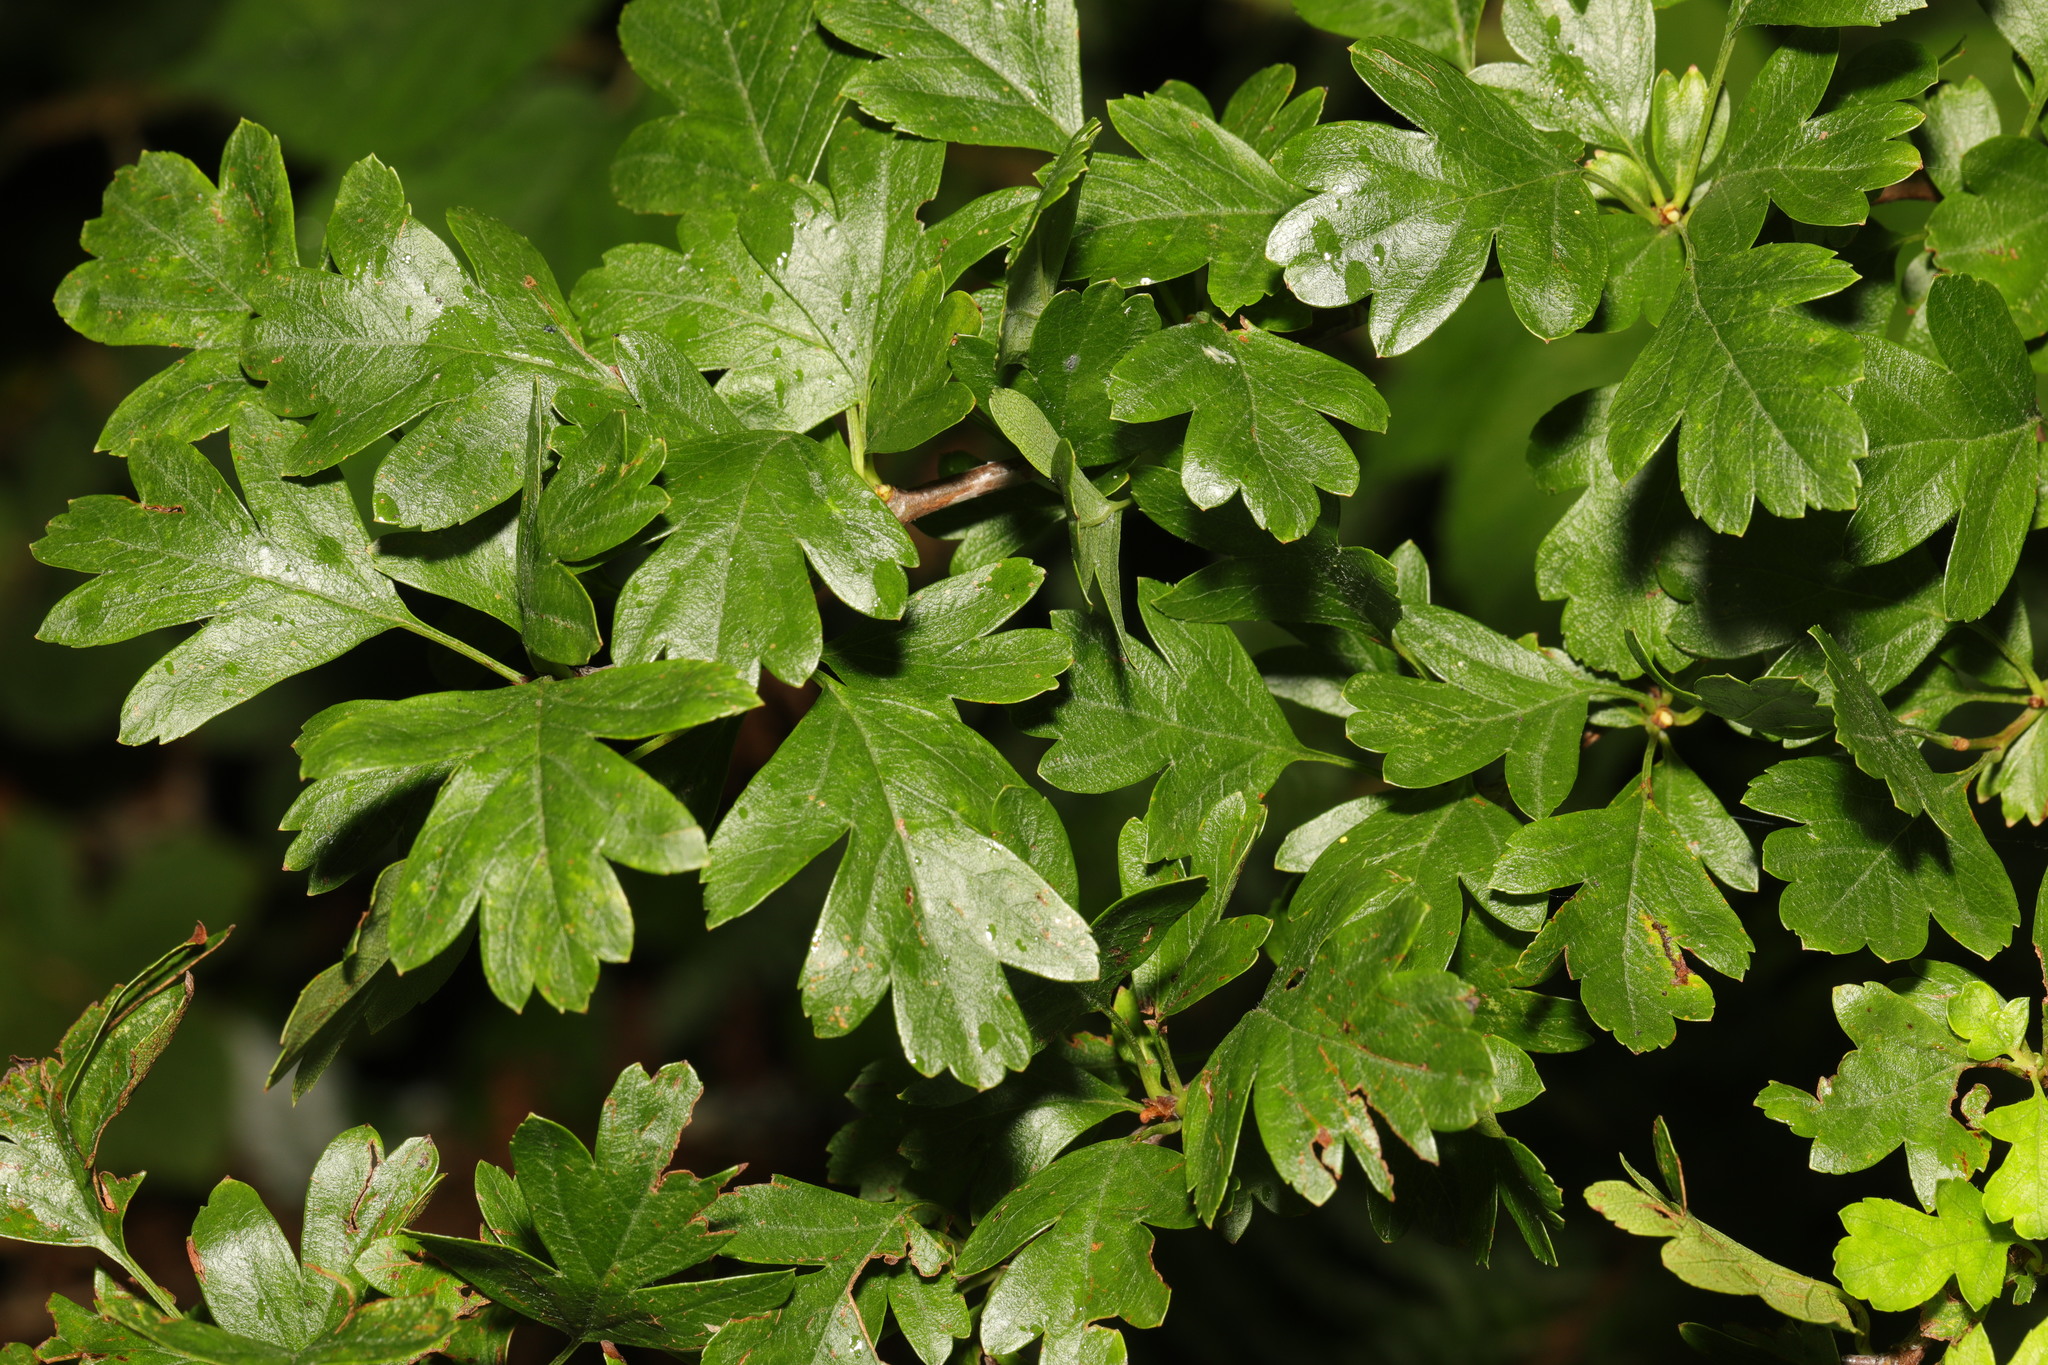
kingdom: Plantae
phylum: Tracheophyta
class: Magnoliopsida
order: Rosales
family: Rosaceae
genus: Crataegus
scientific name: Crataegus monogyna
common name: Hawthorn
